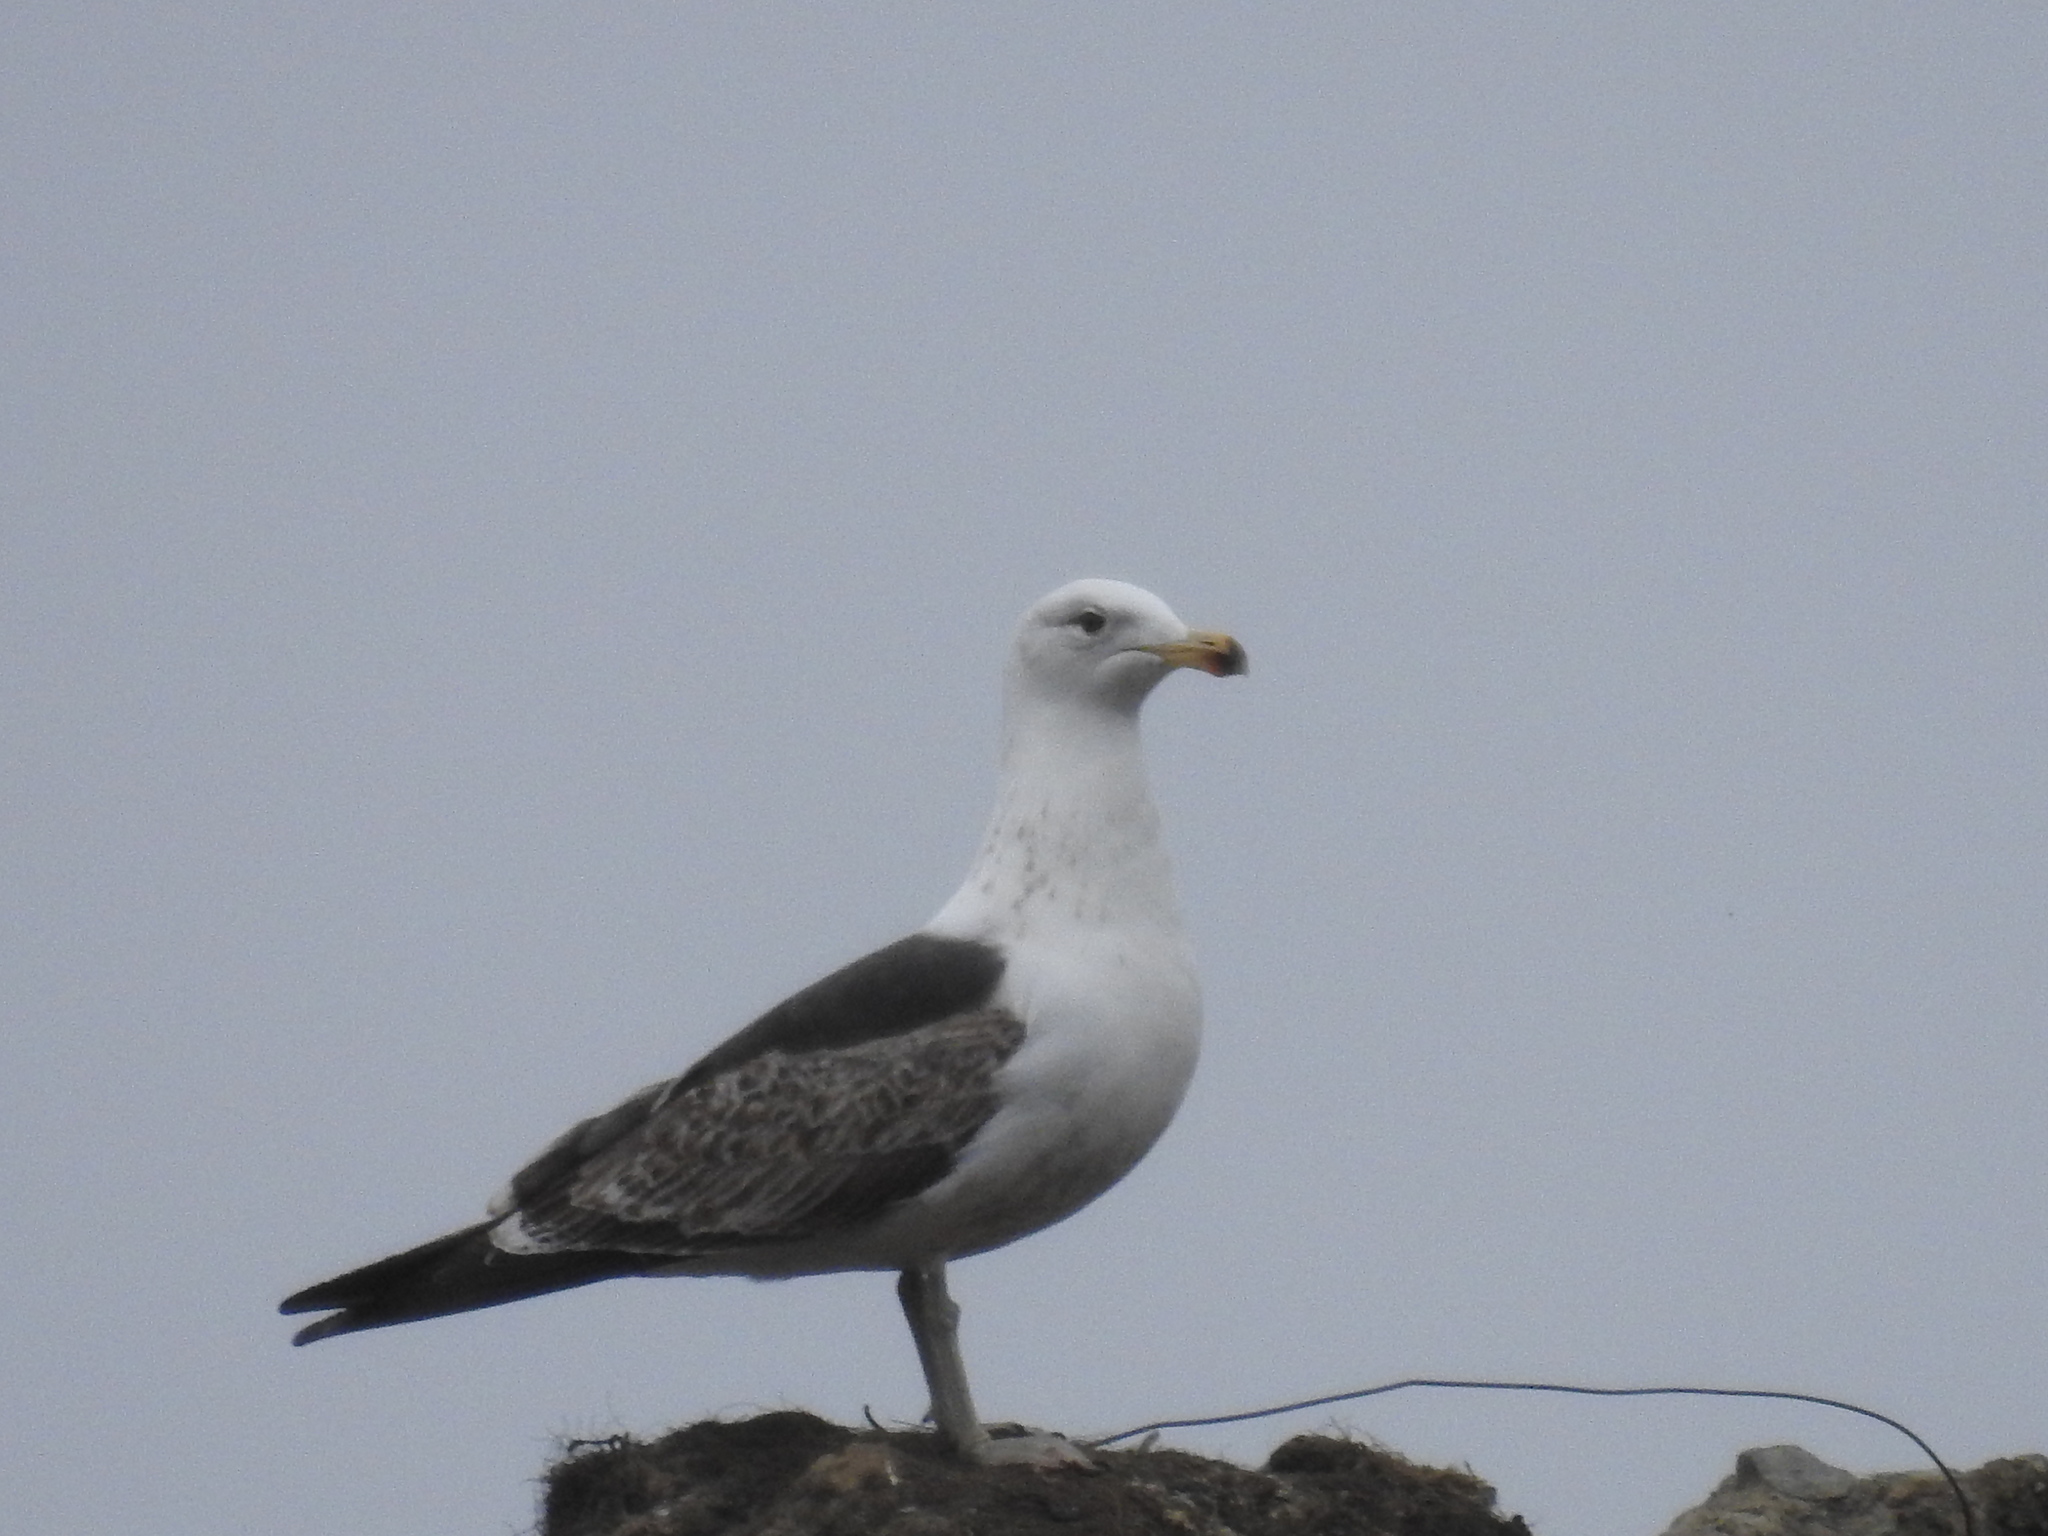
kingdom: Animalia
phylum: Chordata
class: Aves
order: Charadriiformes
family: Laridae
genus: Larus
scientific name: Larus dominicanus
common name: Kelp gull
